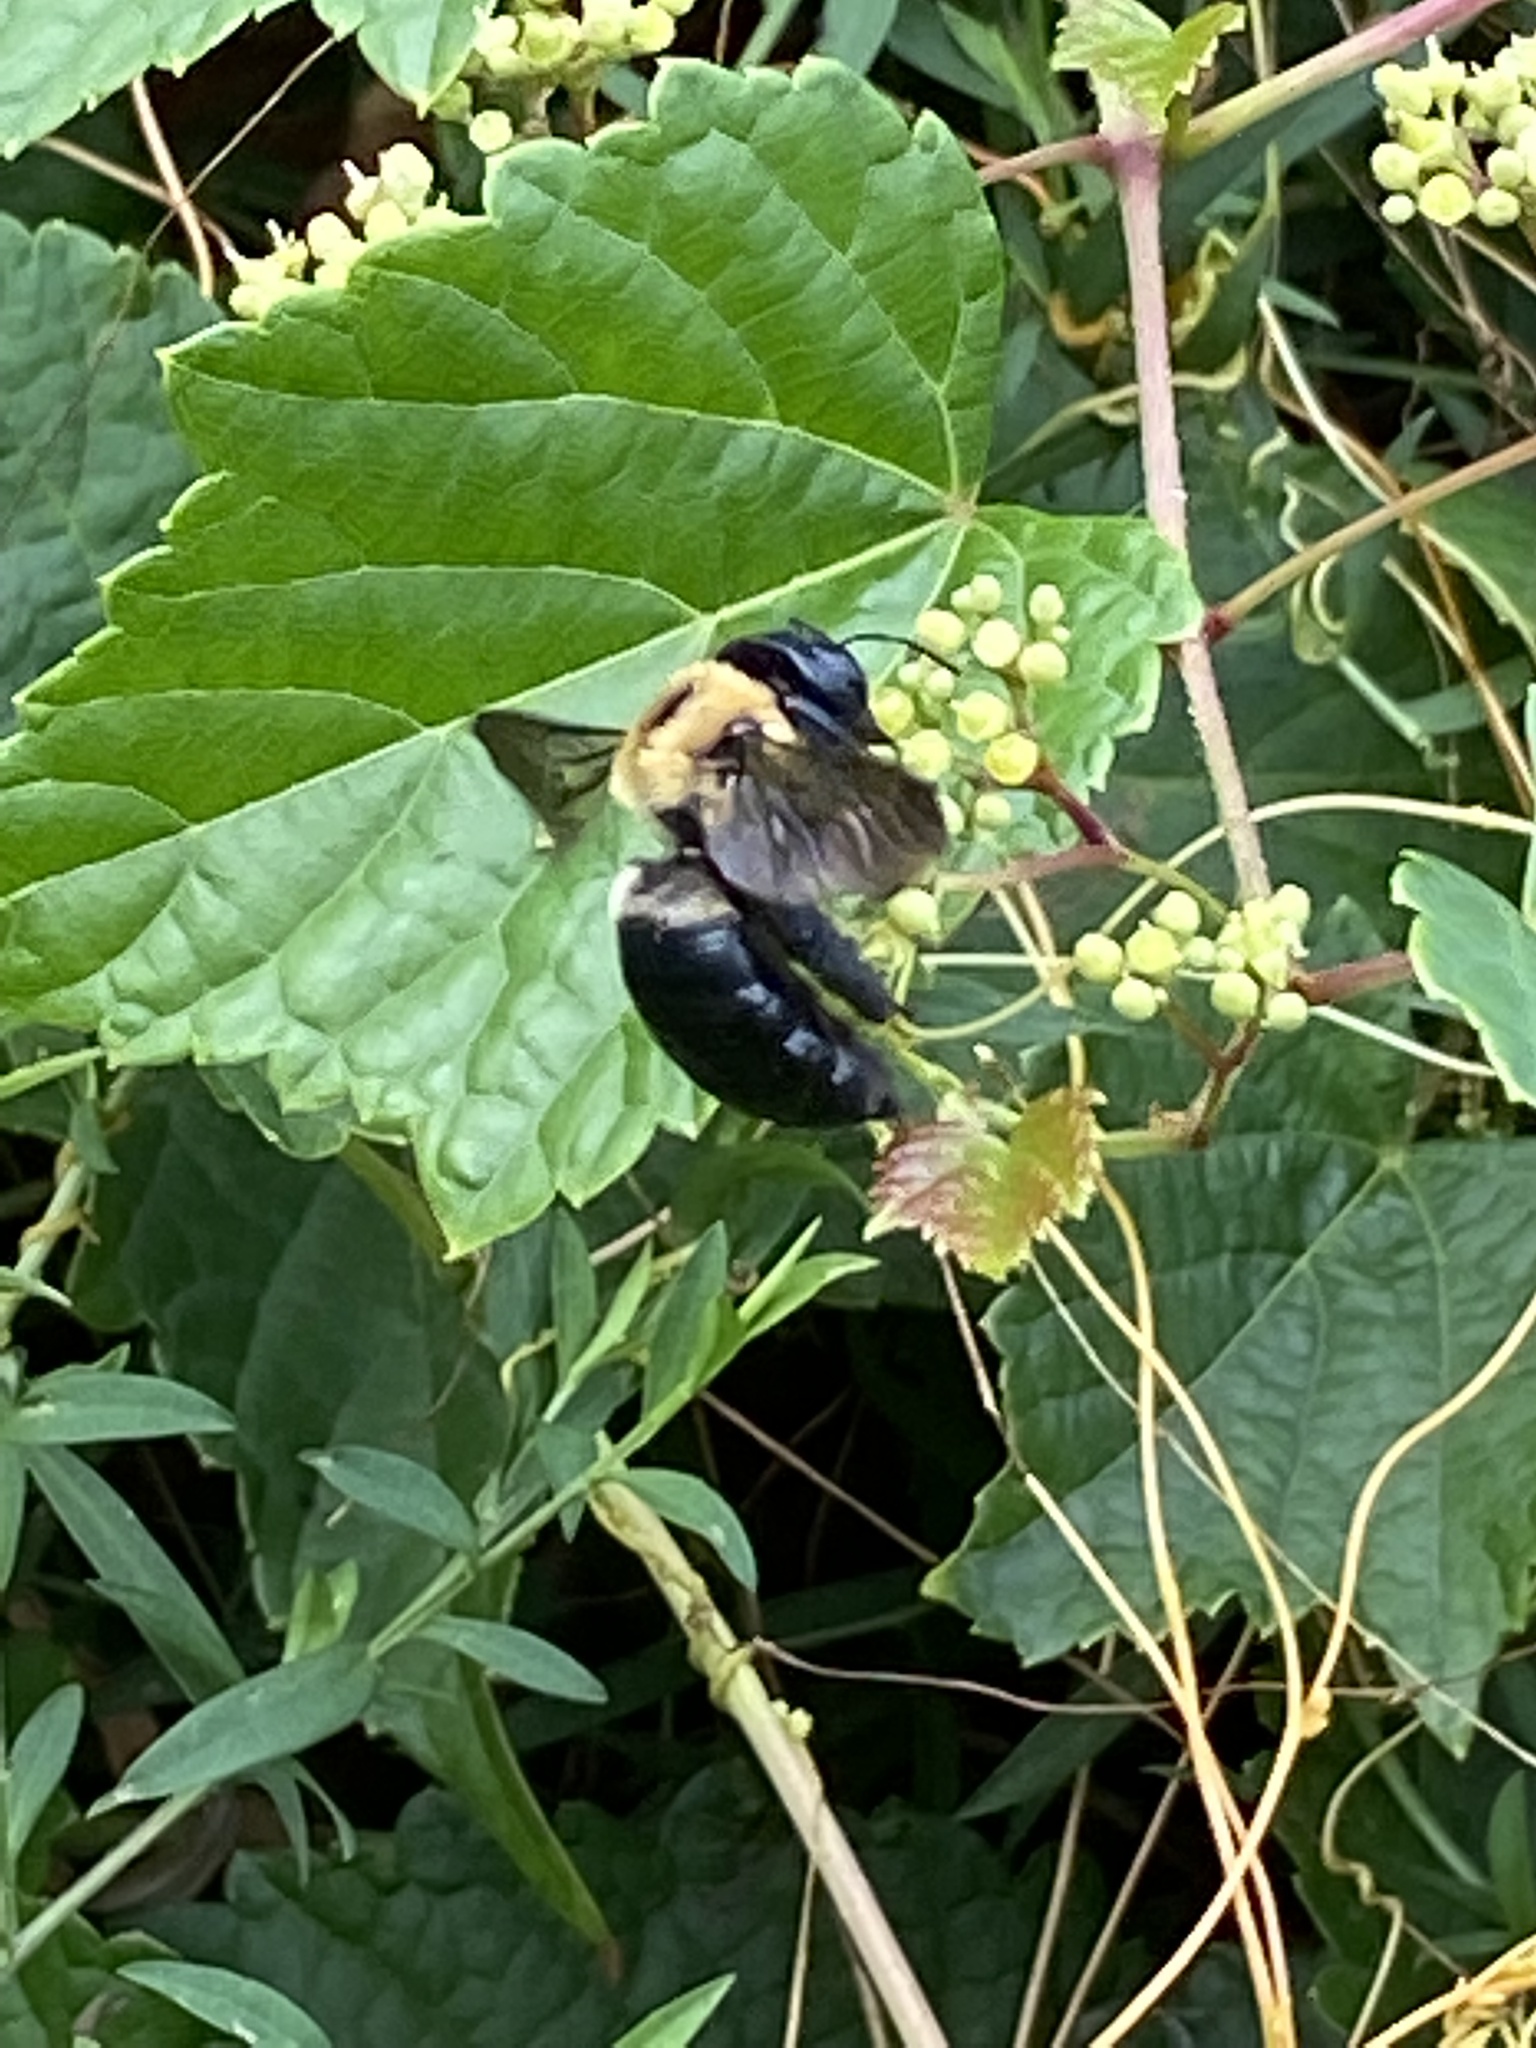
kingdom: Animalia
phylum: Arthropoda
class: Insecta
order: Hymenoptera
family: Apidae
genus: Xylocopa
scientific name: Xylocopa virginica
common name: Carpenter bee
